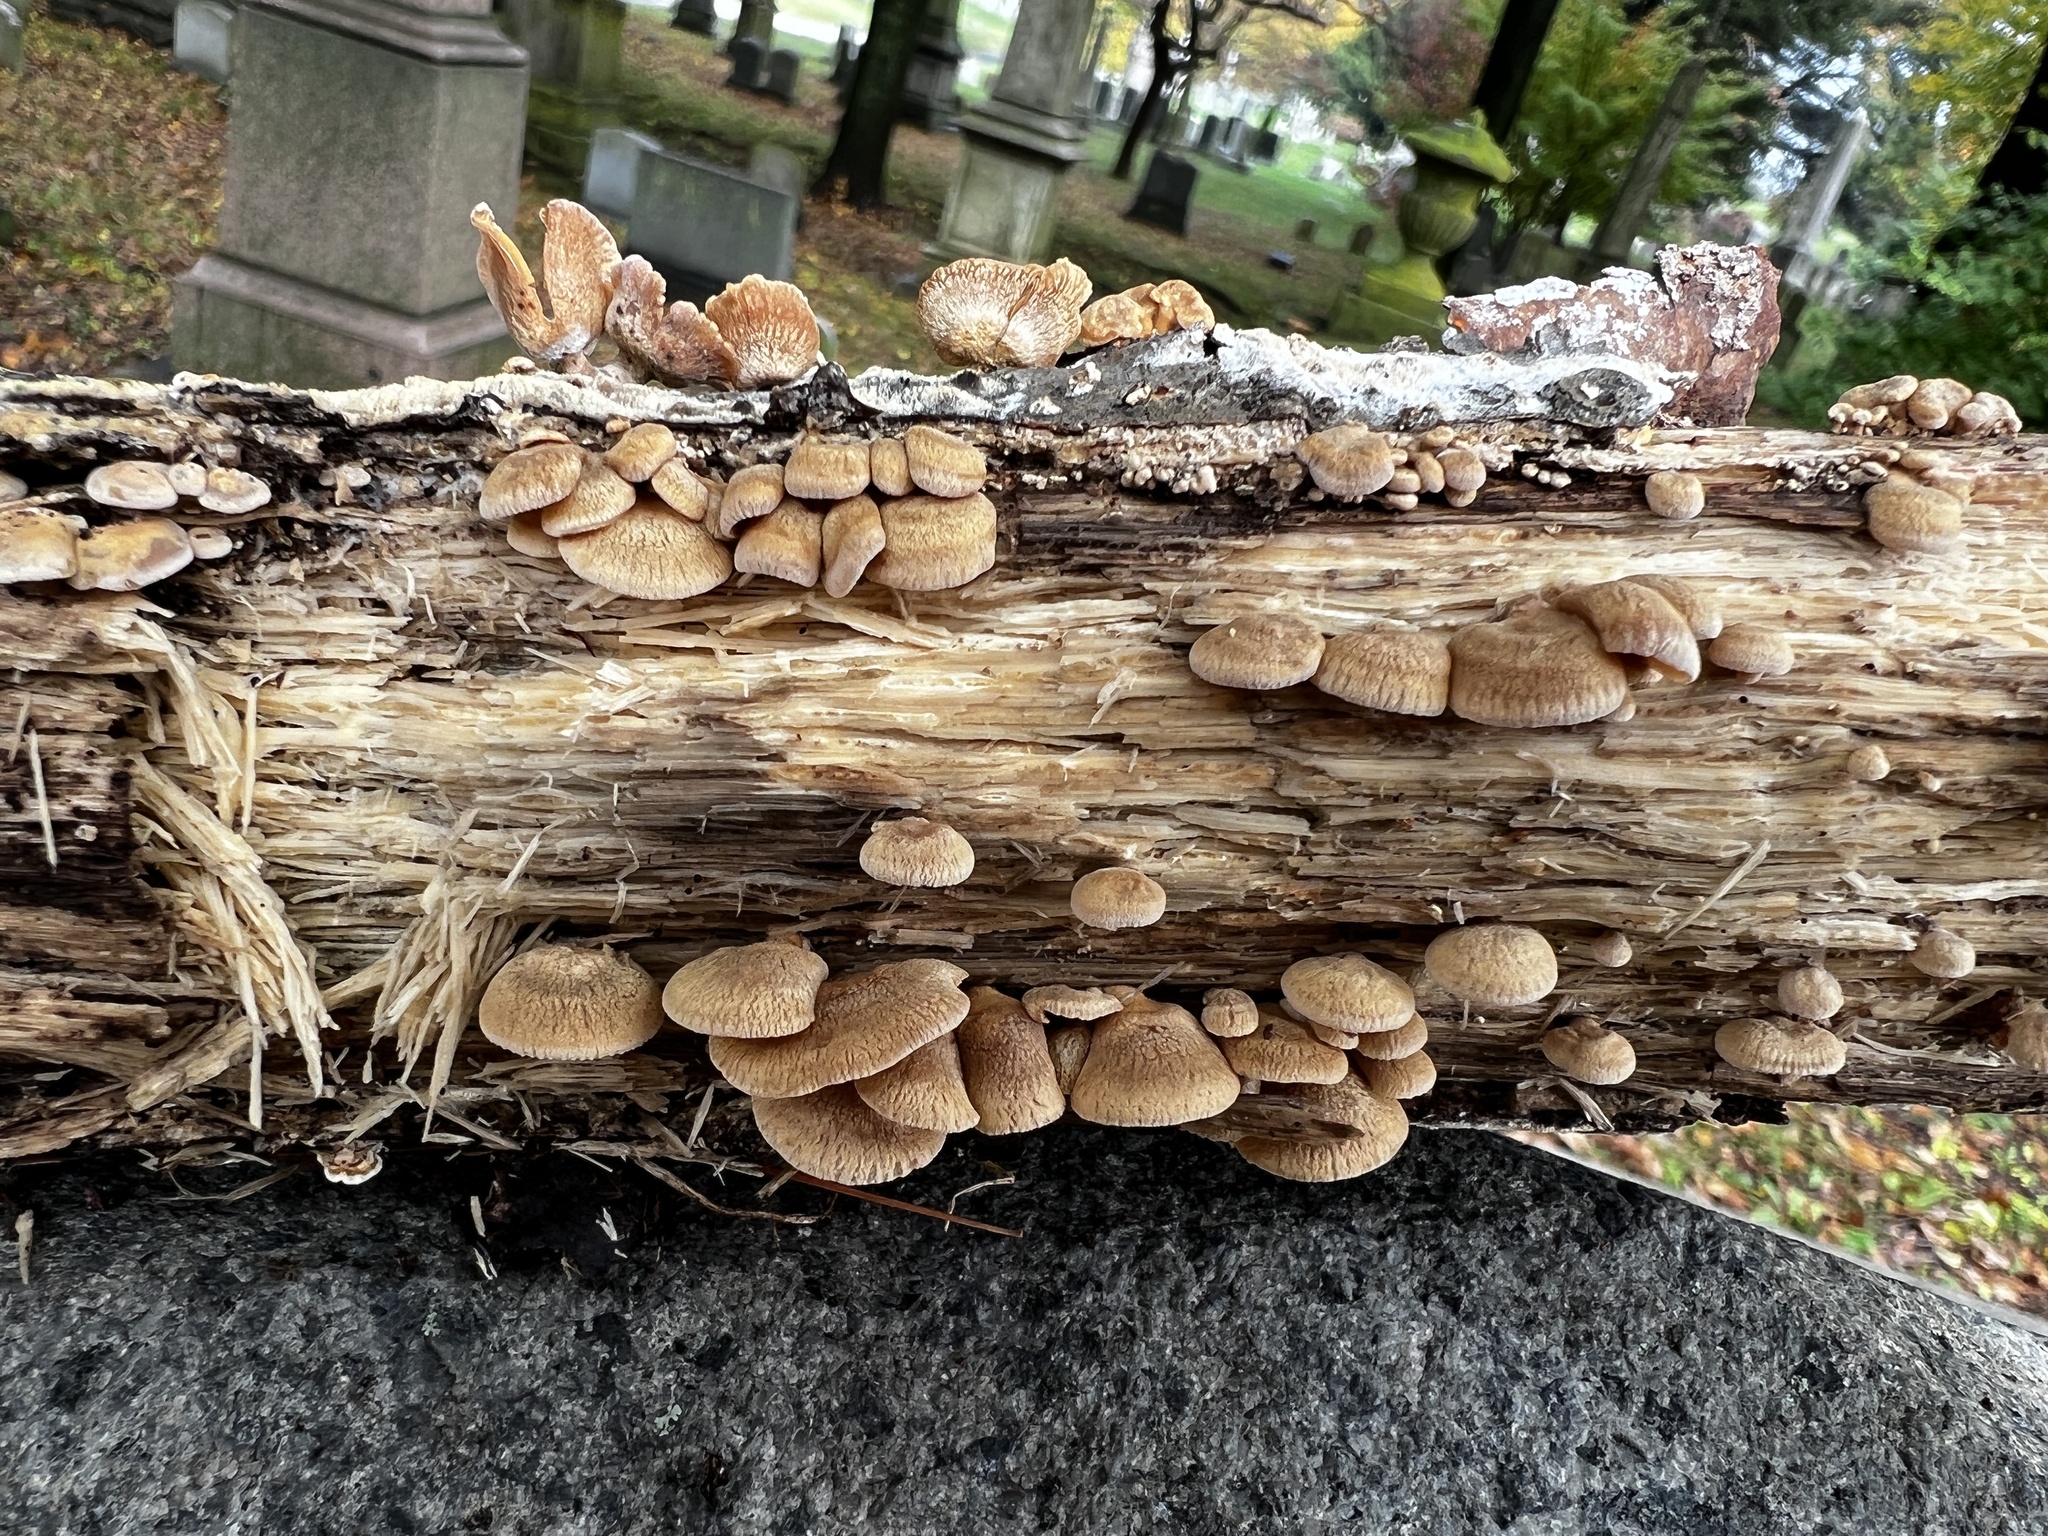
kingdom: Fungi
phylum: Basidiomycota
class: Agaricomycetes
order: Agaricales
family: Mycenaceae
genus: Panellus
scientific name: Panellus stipticus
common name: Bitter oysterling
